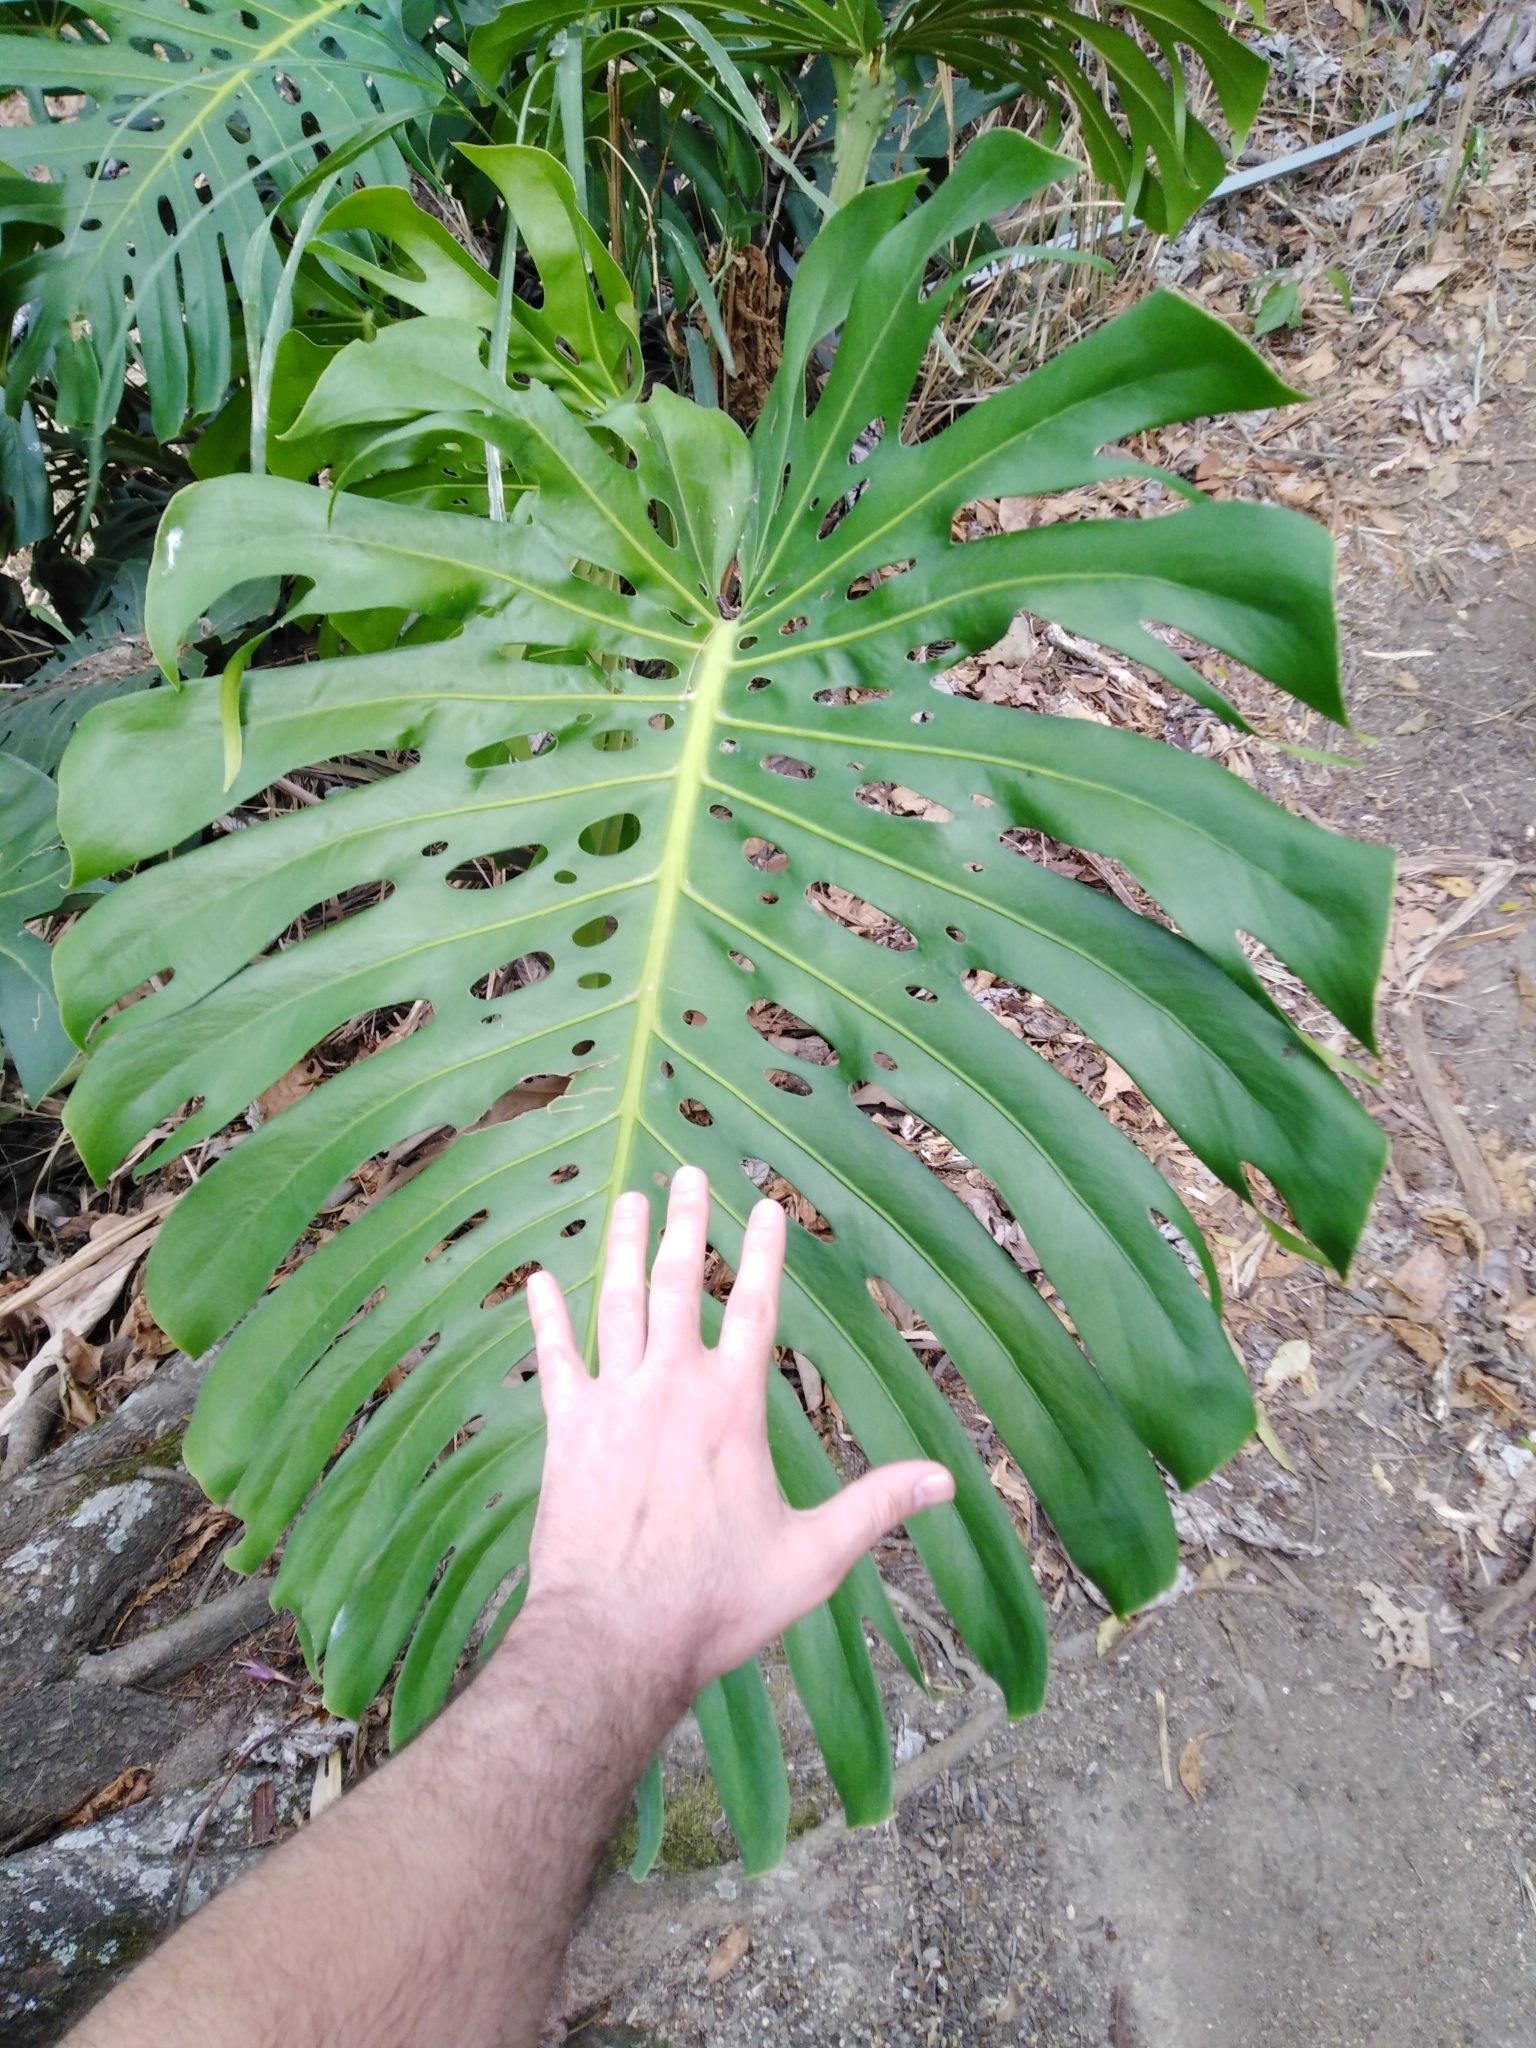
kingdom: Plantae
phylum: Tracheophyta
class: Liliopsida
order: Alismatales
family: Araceae
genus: Monstera
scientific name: Monstera deliciosa
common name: Cut-leaf-philodendron
